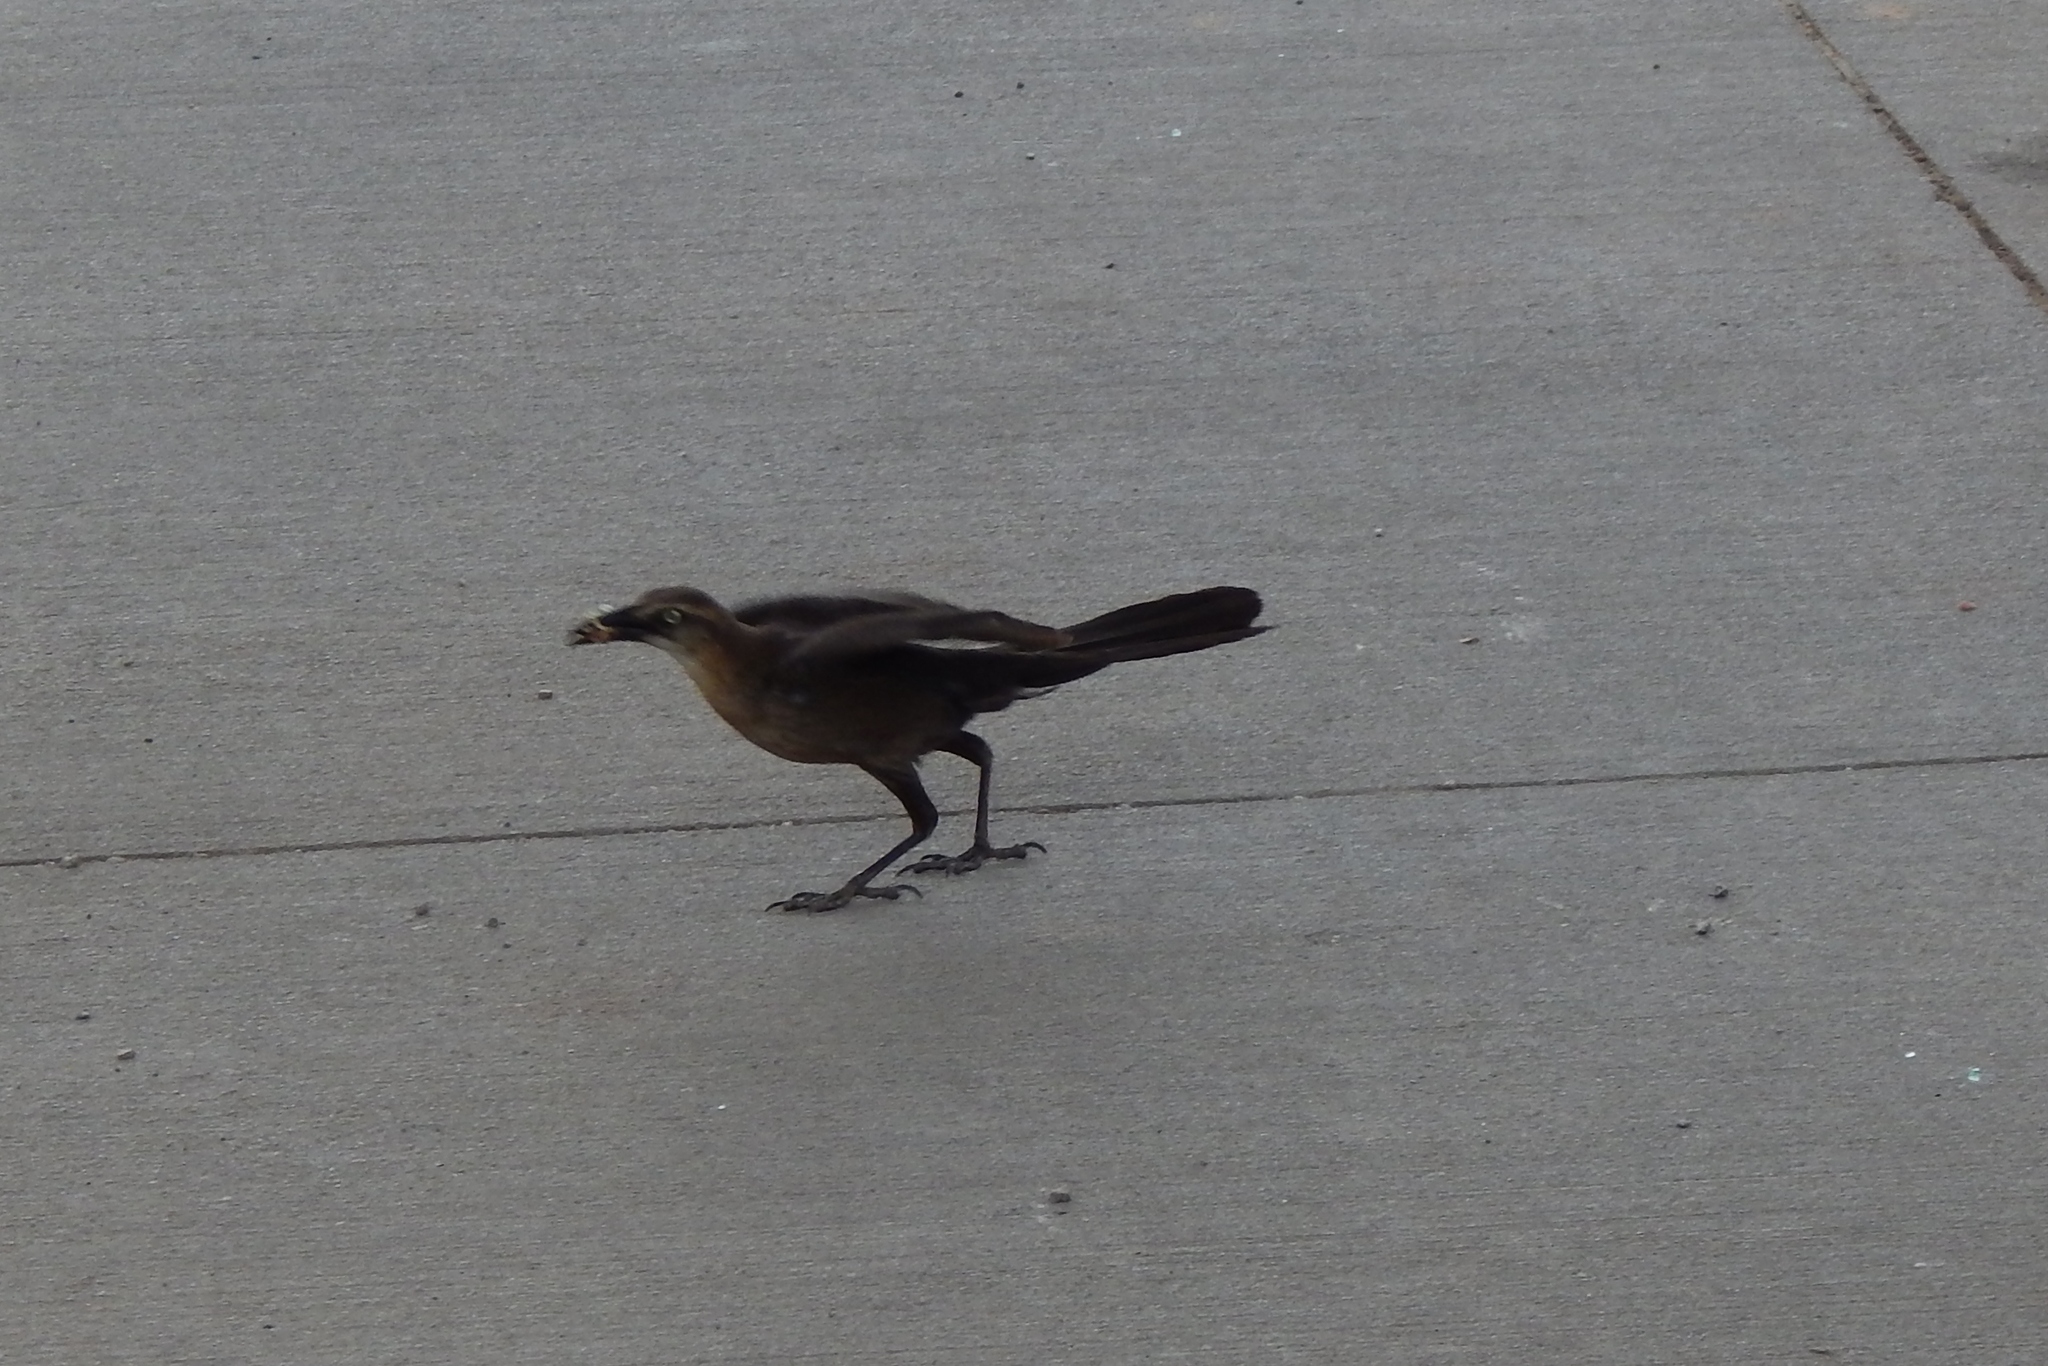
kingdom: Animalia
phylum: Chordata
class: Aves
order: Passeriformes
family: Icteridae
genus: Quiscalus
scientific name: Quiscalus mexicanus
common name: Great-tailed grackle
